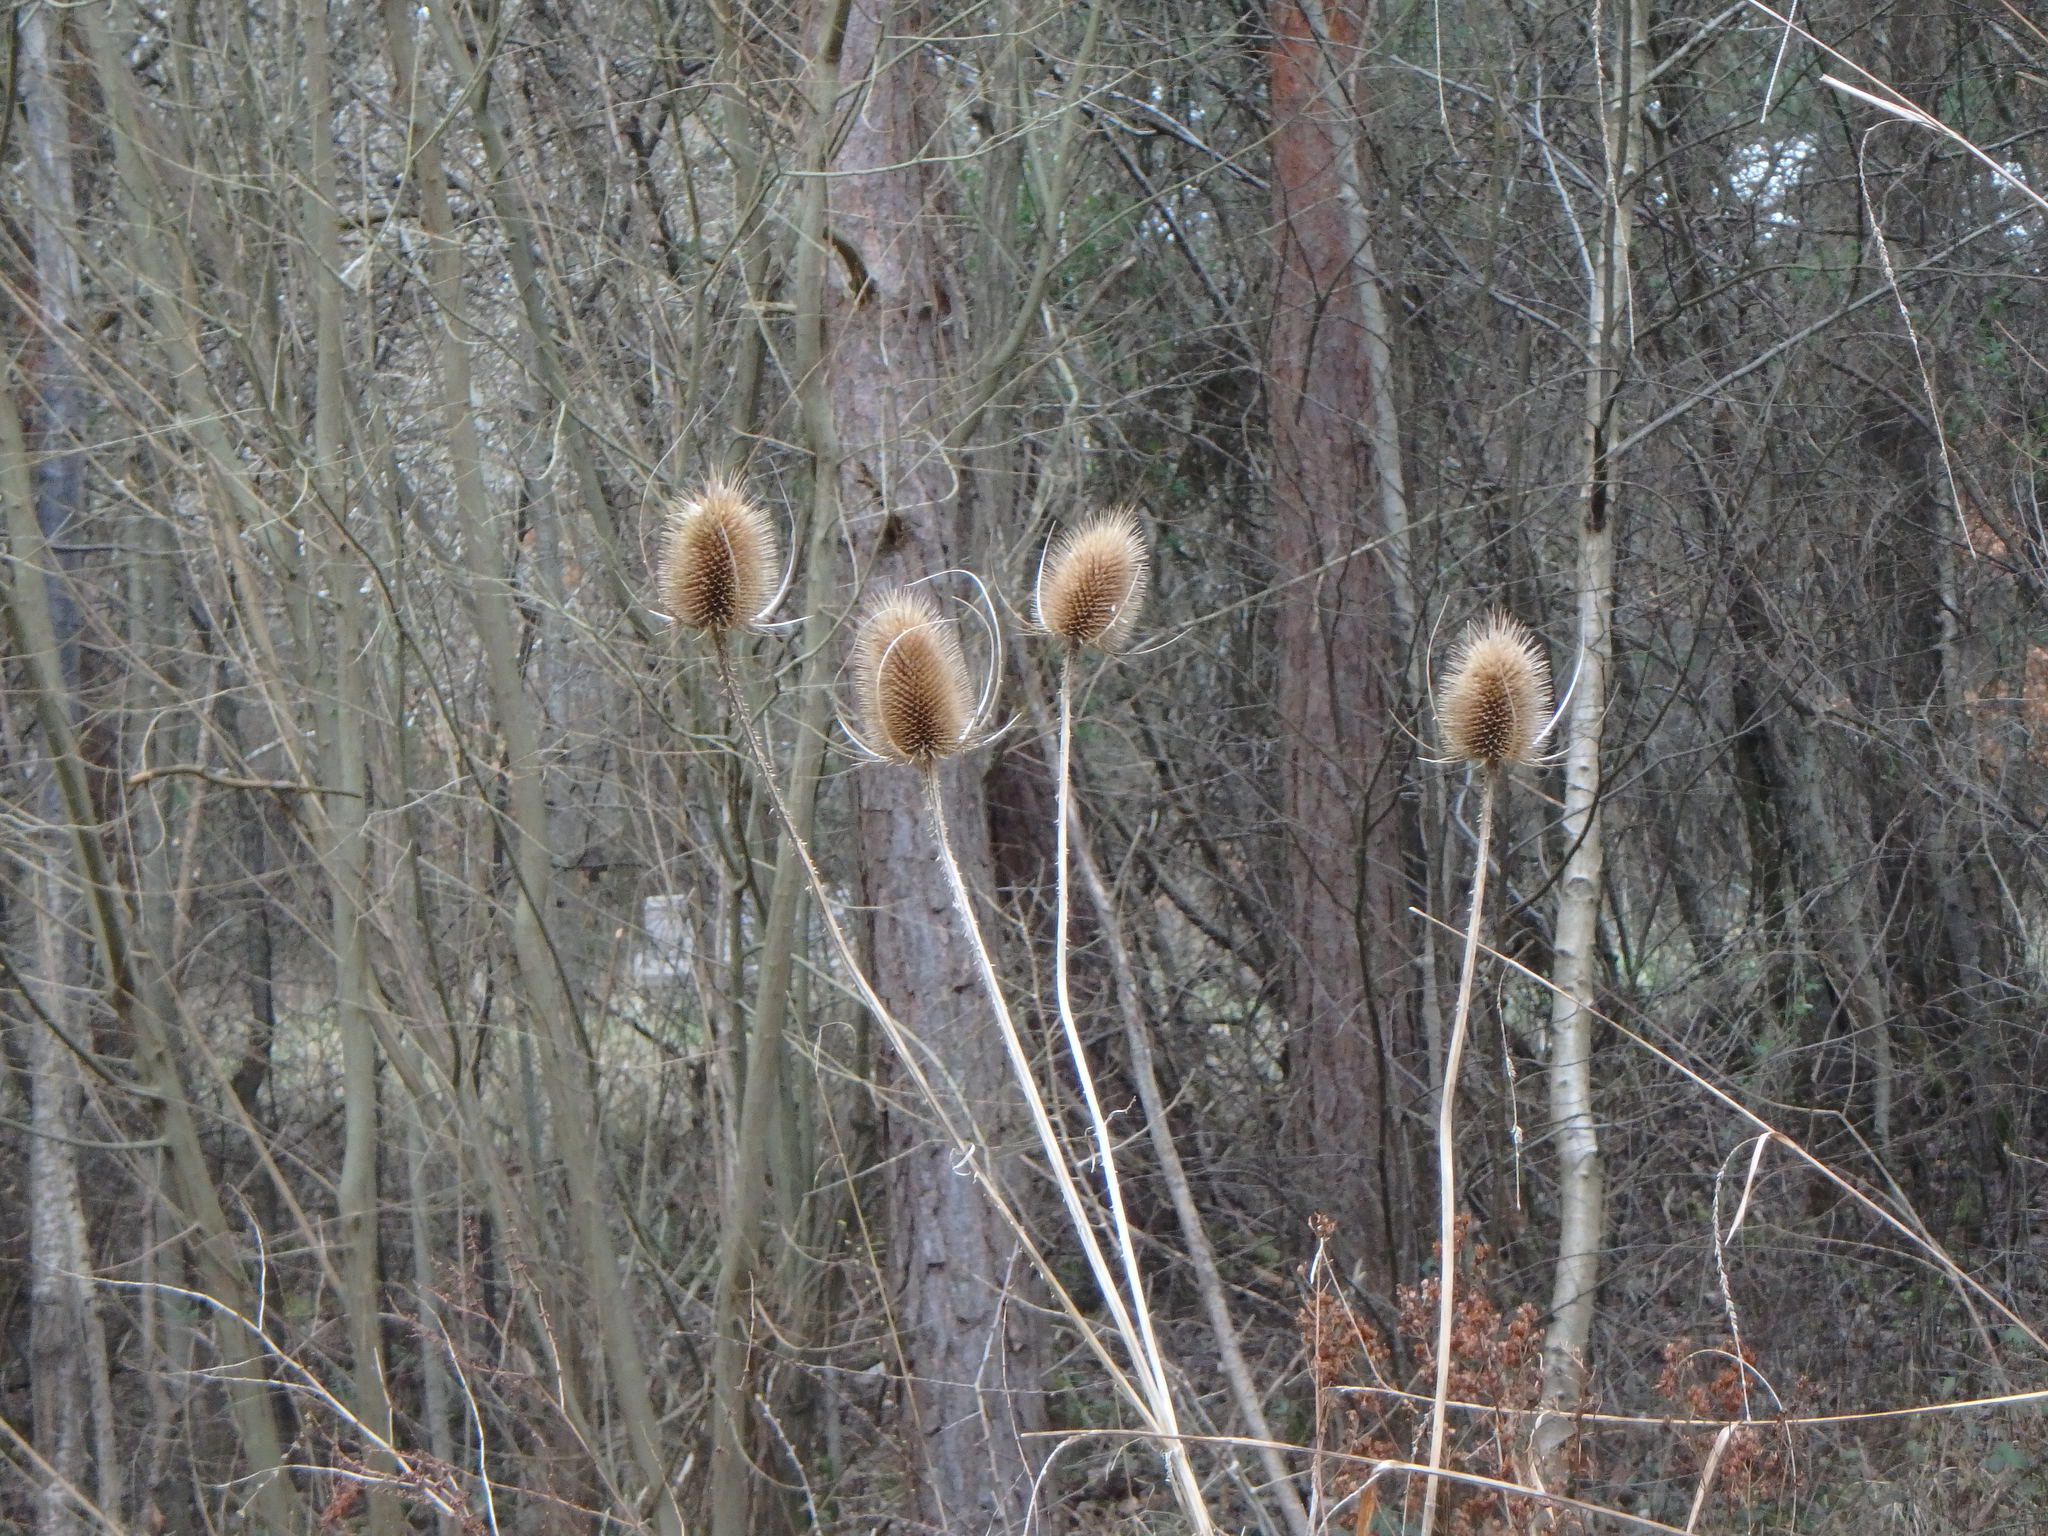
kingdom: Plantae
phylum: Tracheophyta
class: Magnoliopsida
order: Dipsacales
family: Caprifoliaceae
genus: Dipsacus
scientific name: Dipsacus fullonum
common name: Teasel
